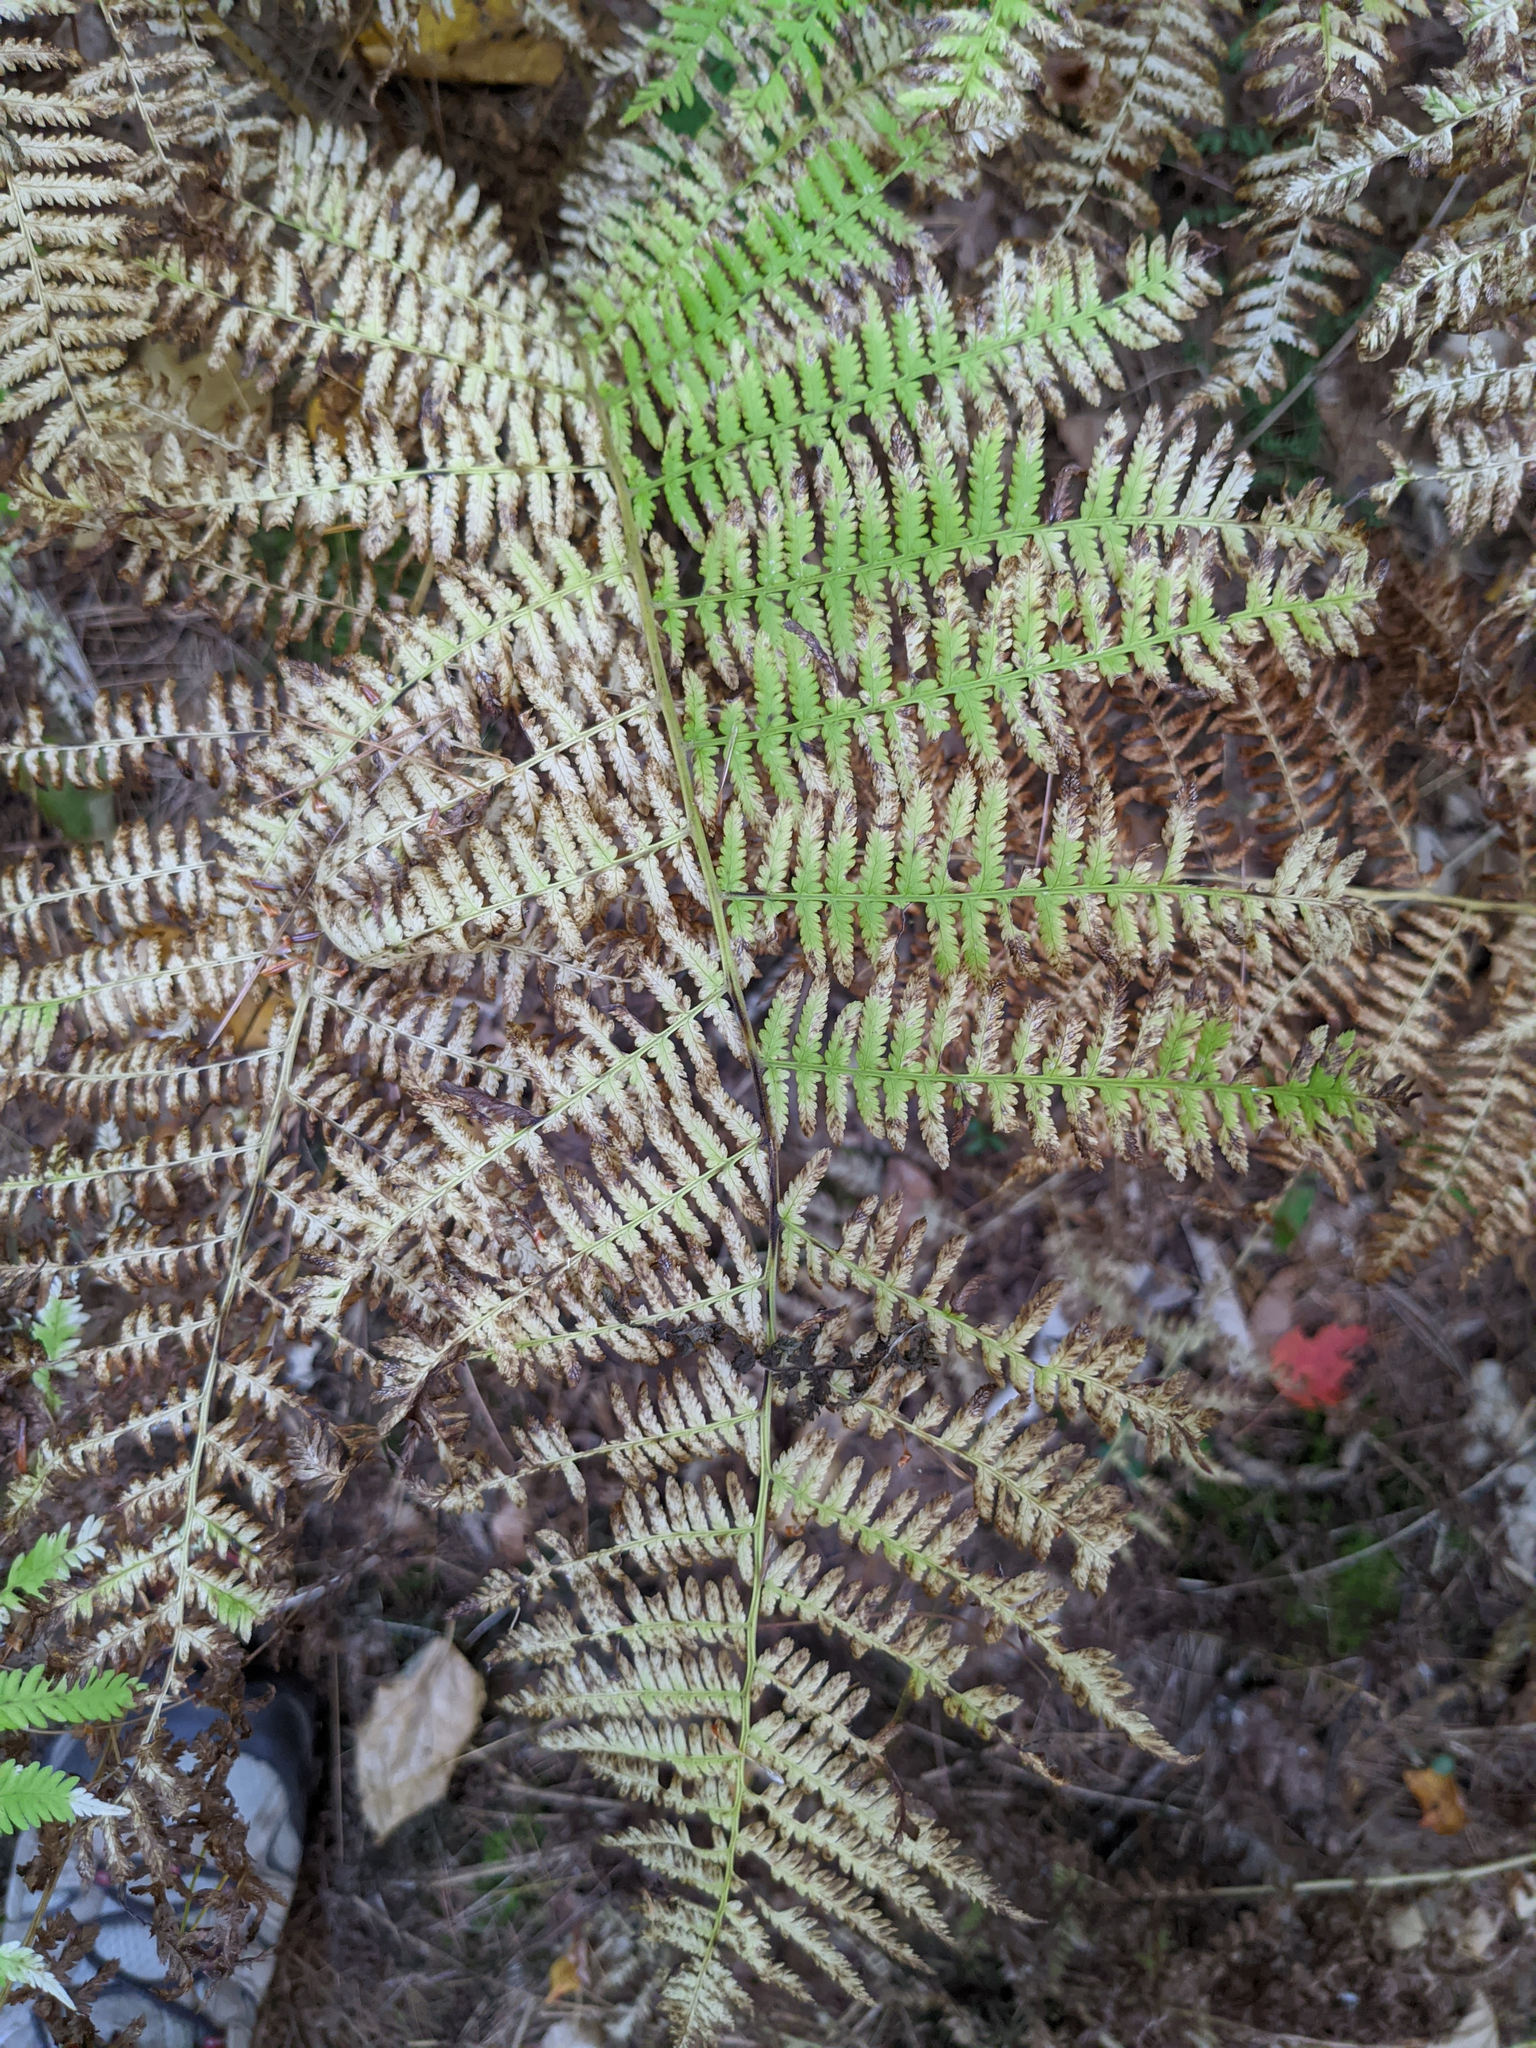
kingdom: Plantae
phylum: Tracheophyta
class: Polypodiopsida
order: Polypodiales
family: Athyriaceae
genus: Athyrium
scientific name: Athyrium angustum
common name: Northern lady fern
